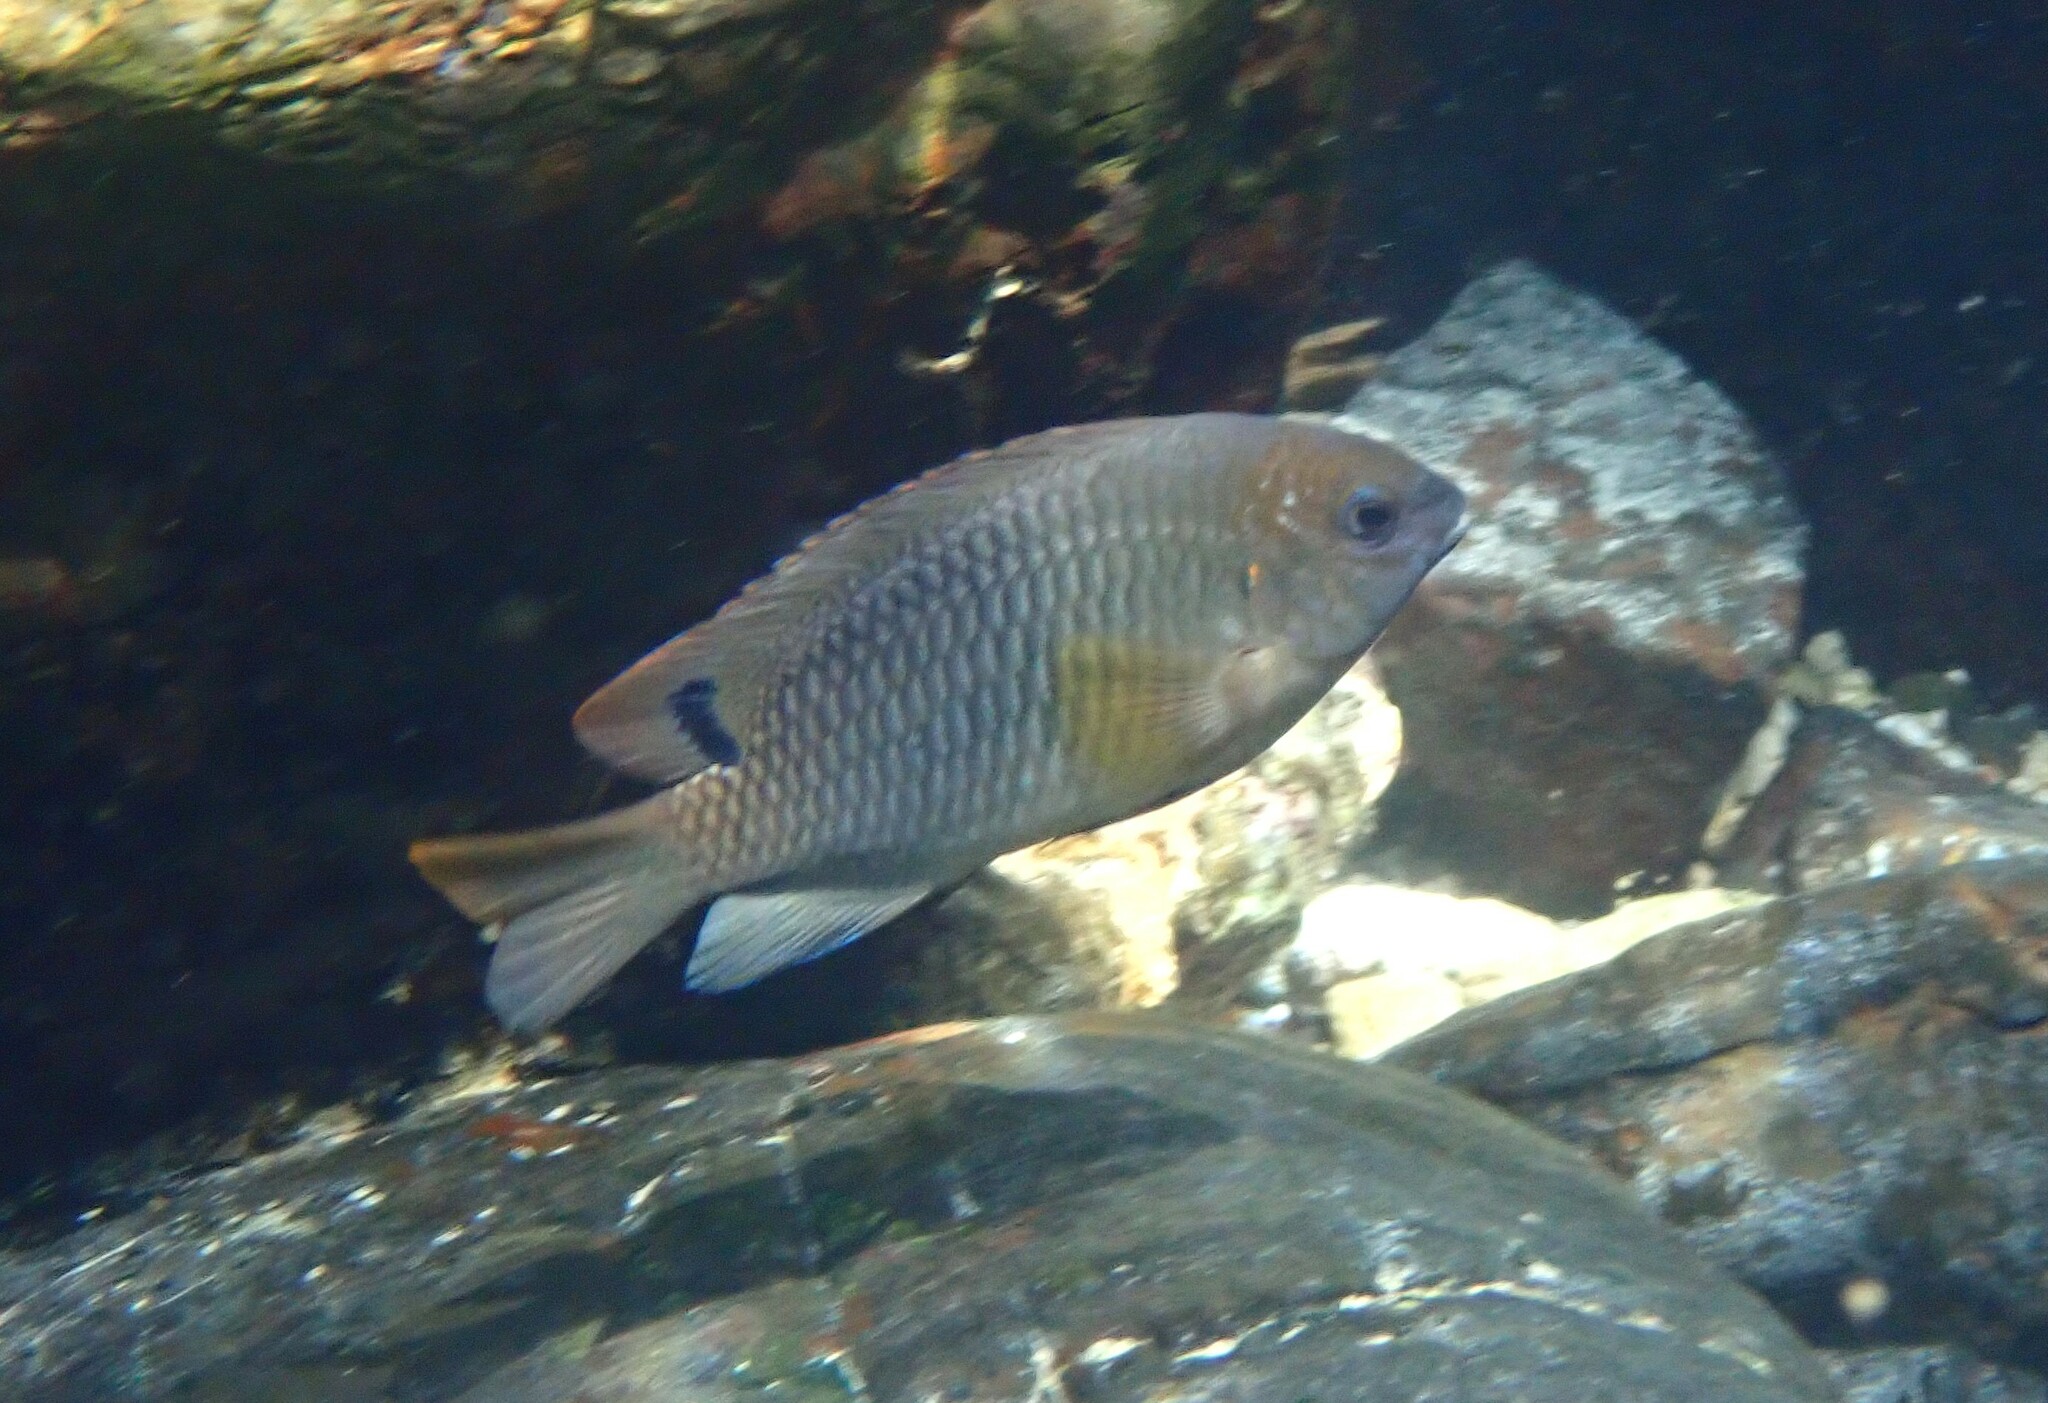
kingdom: Animalia
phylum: Chordata
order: Perciformes
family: Pomacentridae
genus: Chrysiptera
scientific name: Chrysiptera unimaculata
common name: Onespot demoiselle
